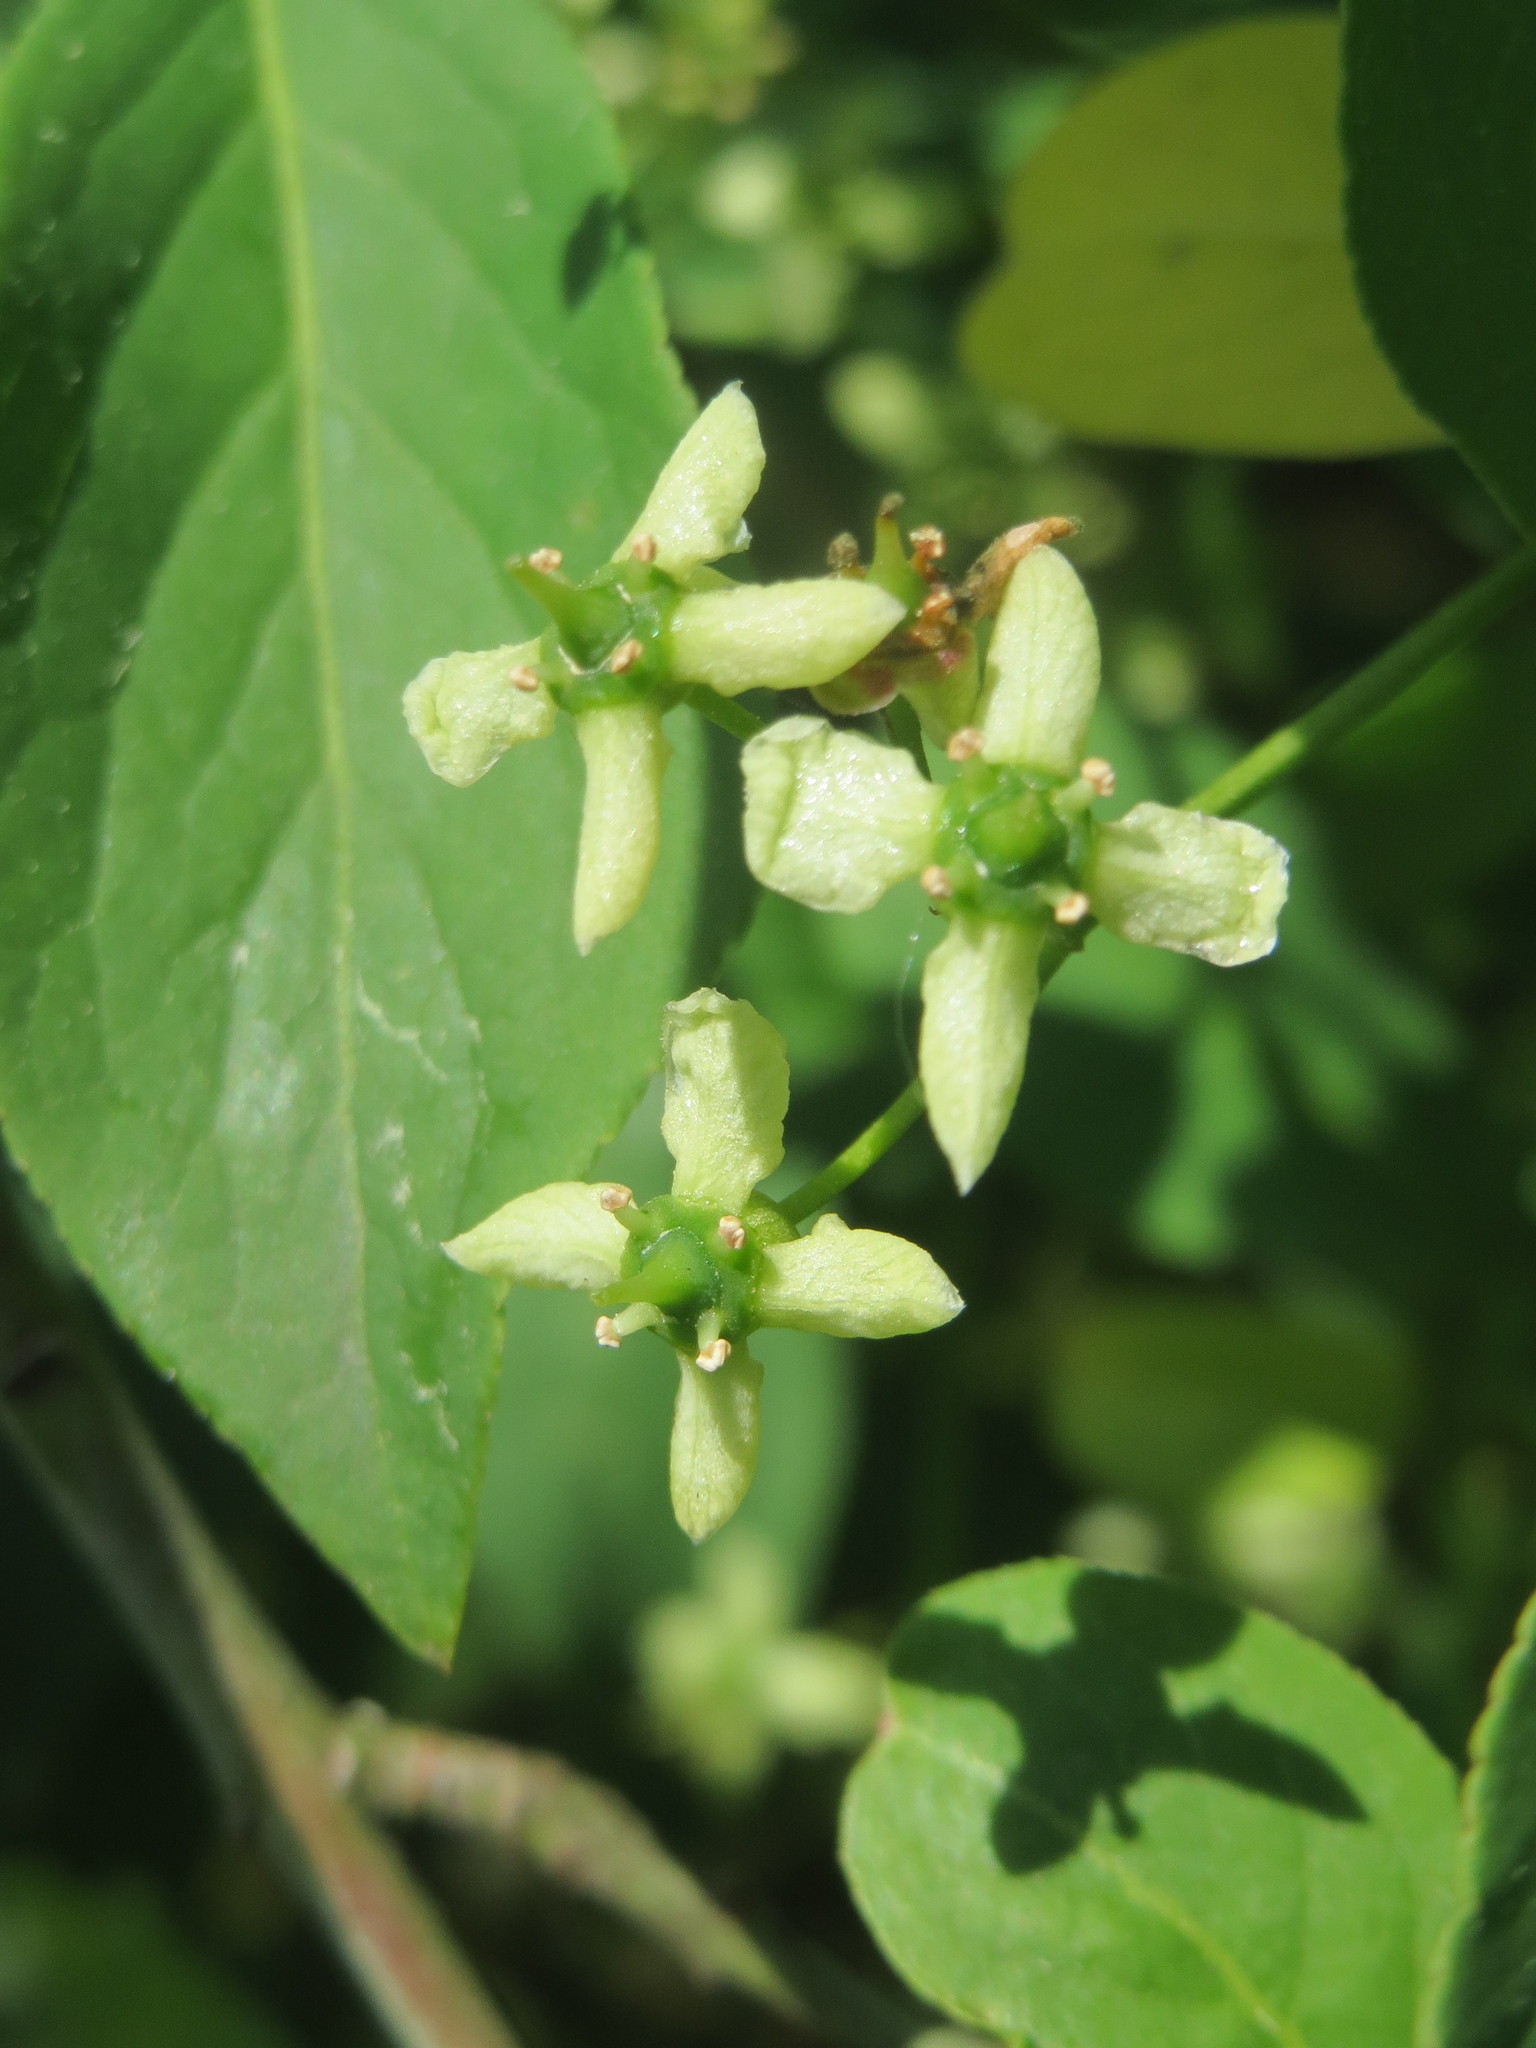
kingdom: Plantae
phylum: Tracheophyta
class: Magnoliopsida
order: Celastrales
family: Celastraceae
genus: Euonymus
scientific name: Euonymus europaeus
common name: Spindle
